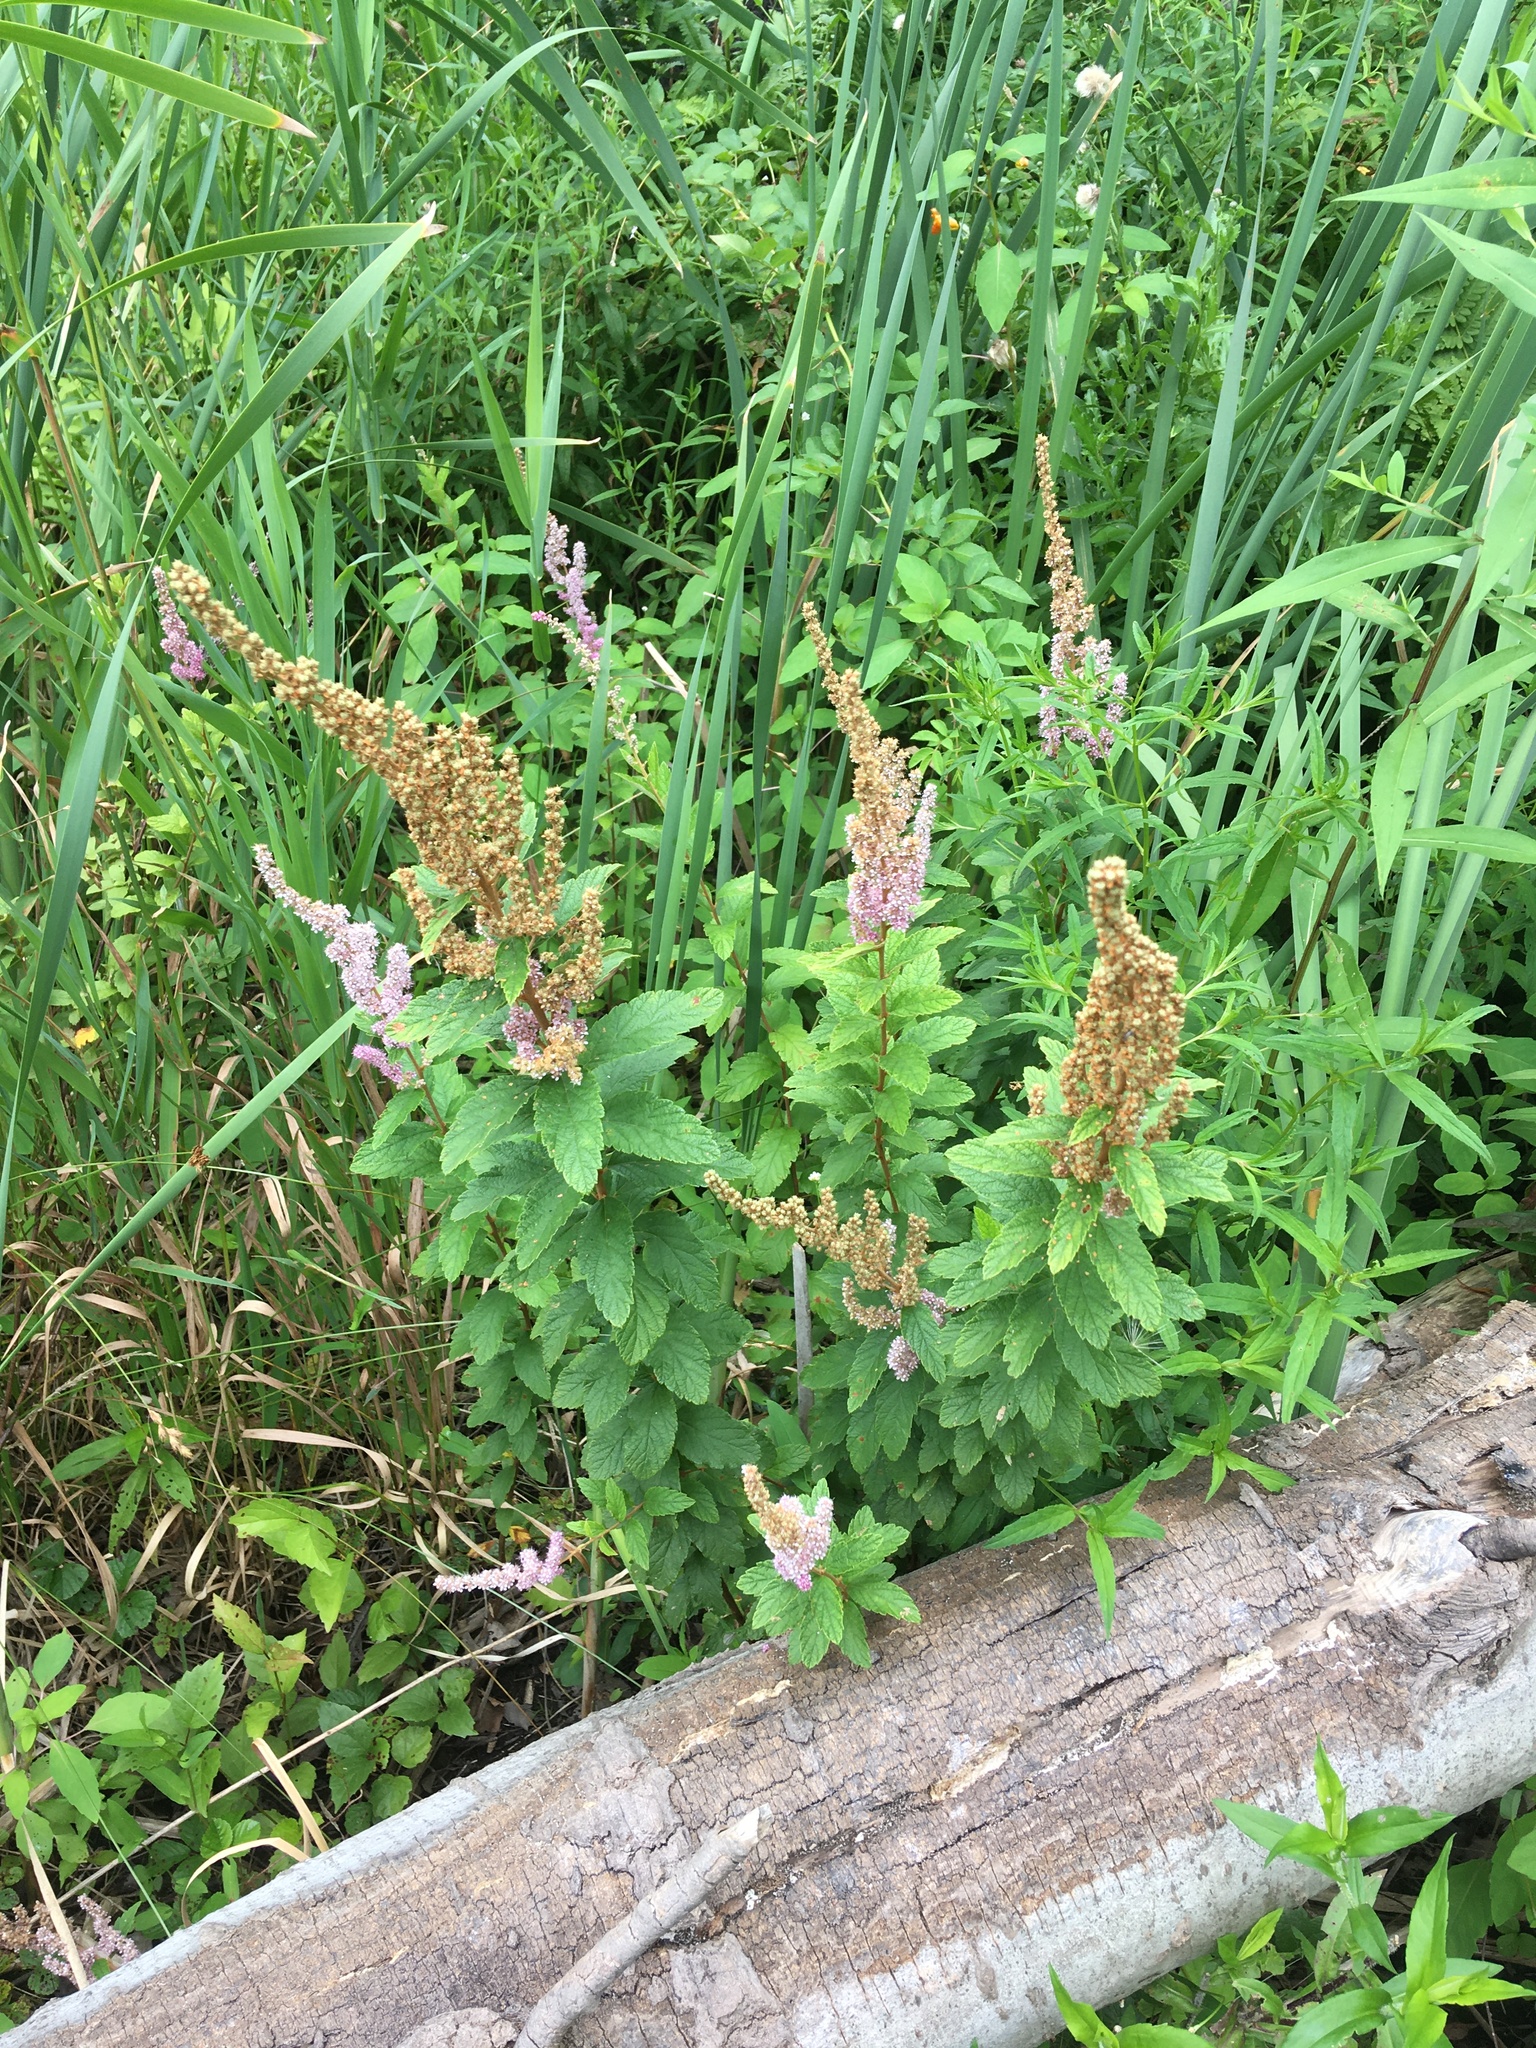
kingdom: Plantae
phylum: Tracheophyta
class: Magnoliopsida
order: Rosales
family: Rosaceae
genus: Spiraea
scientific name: Spiraea tomentosa
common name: Hardhack
